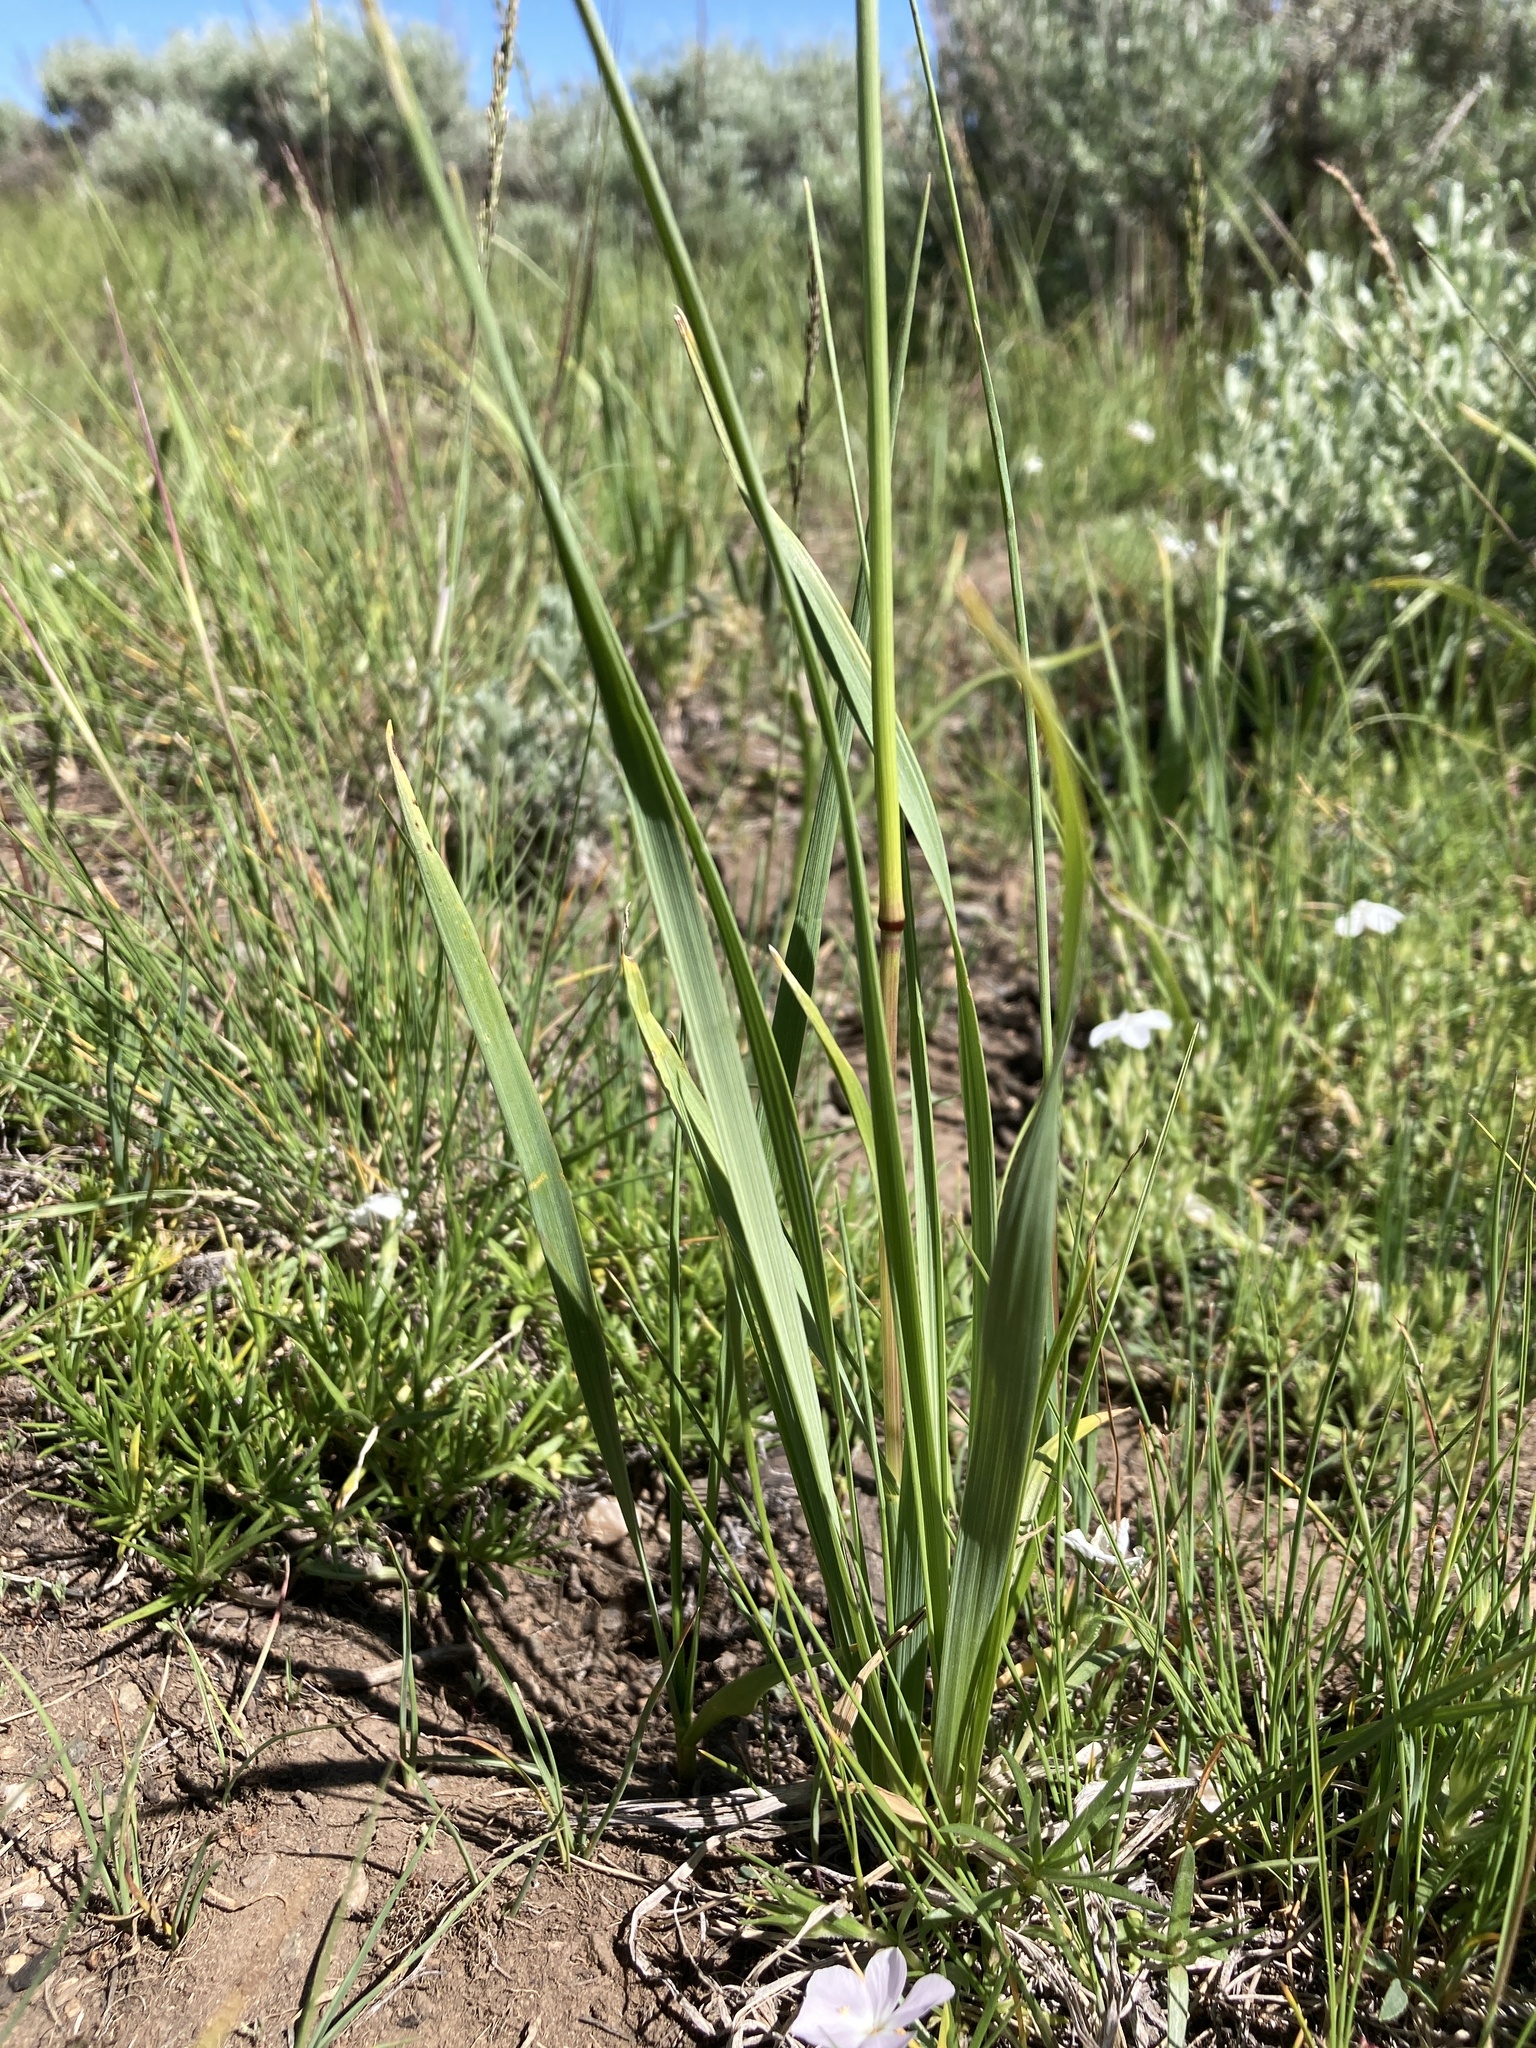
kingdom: Plantae
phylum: Tracheophyta
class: Liliopsida
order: Poales
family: Poaceae
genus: Festuca
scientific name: Festuca kingii
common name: Spike fescue
